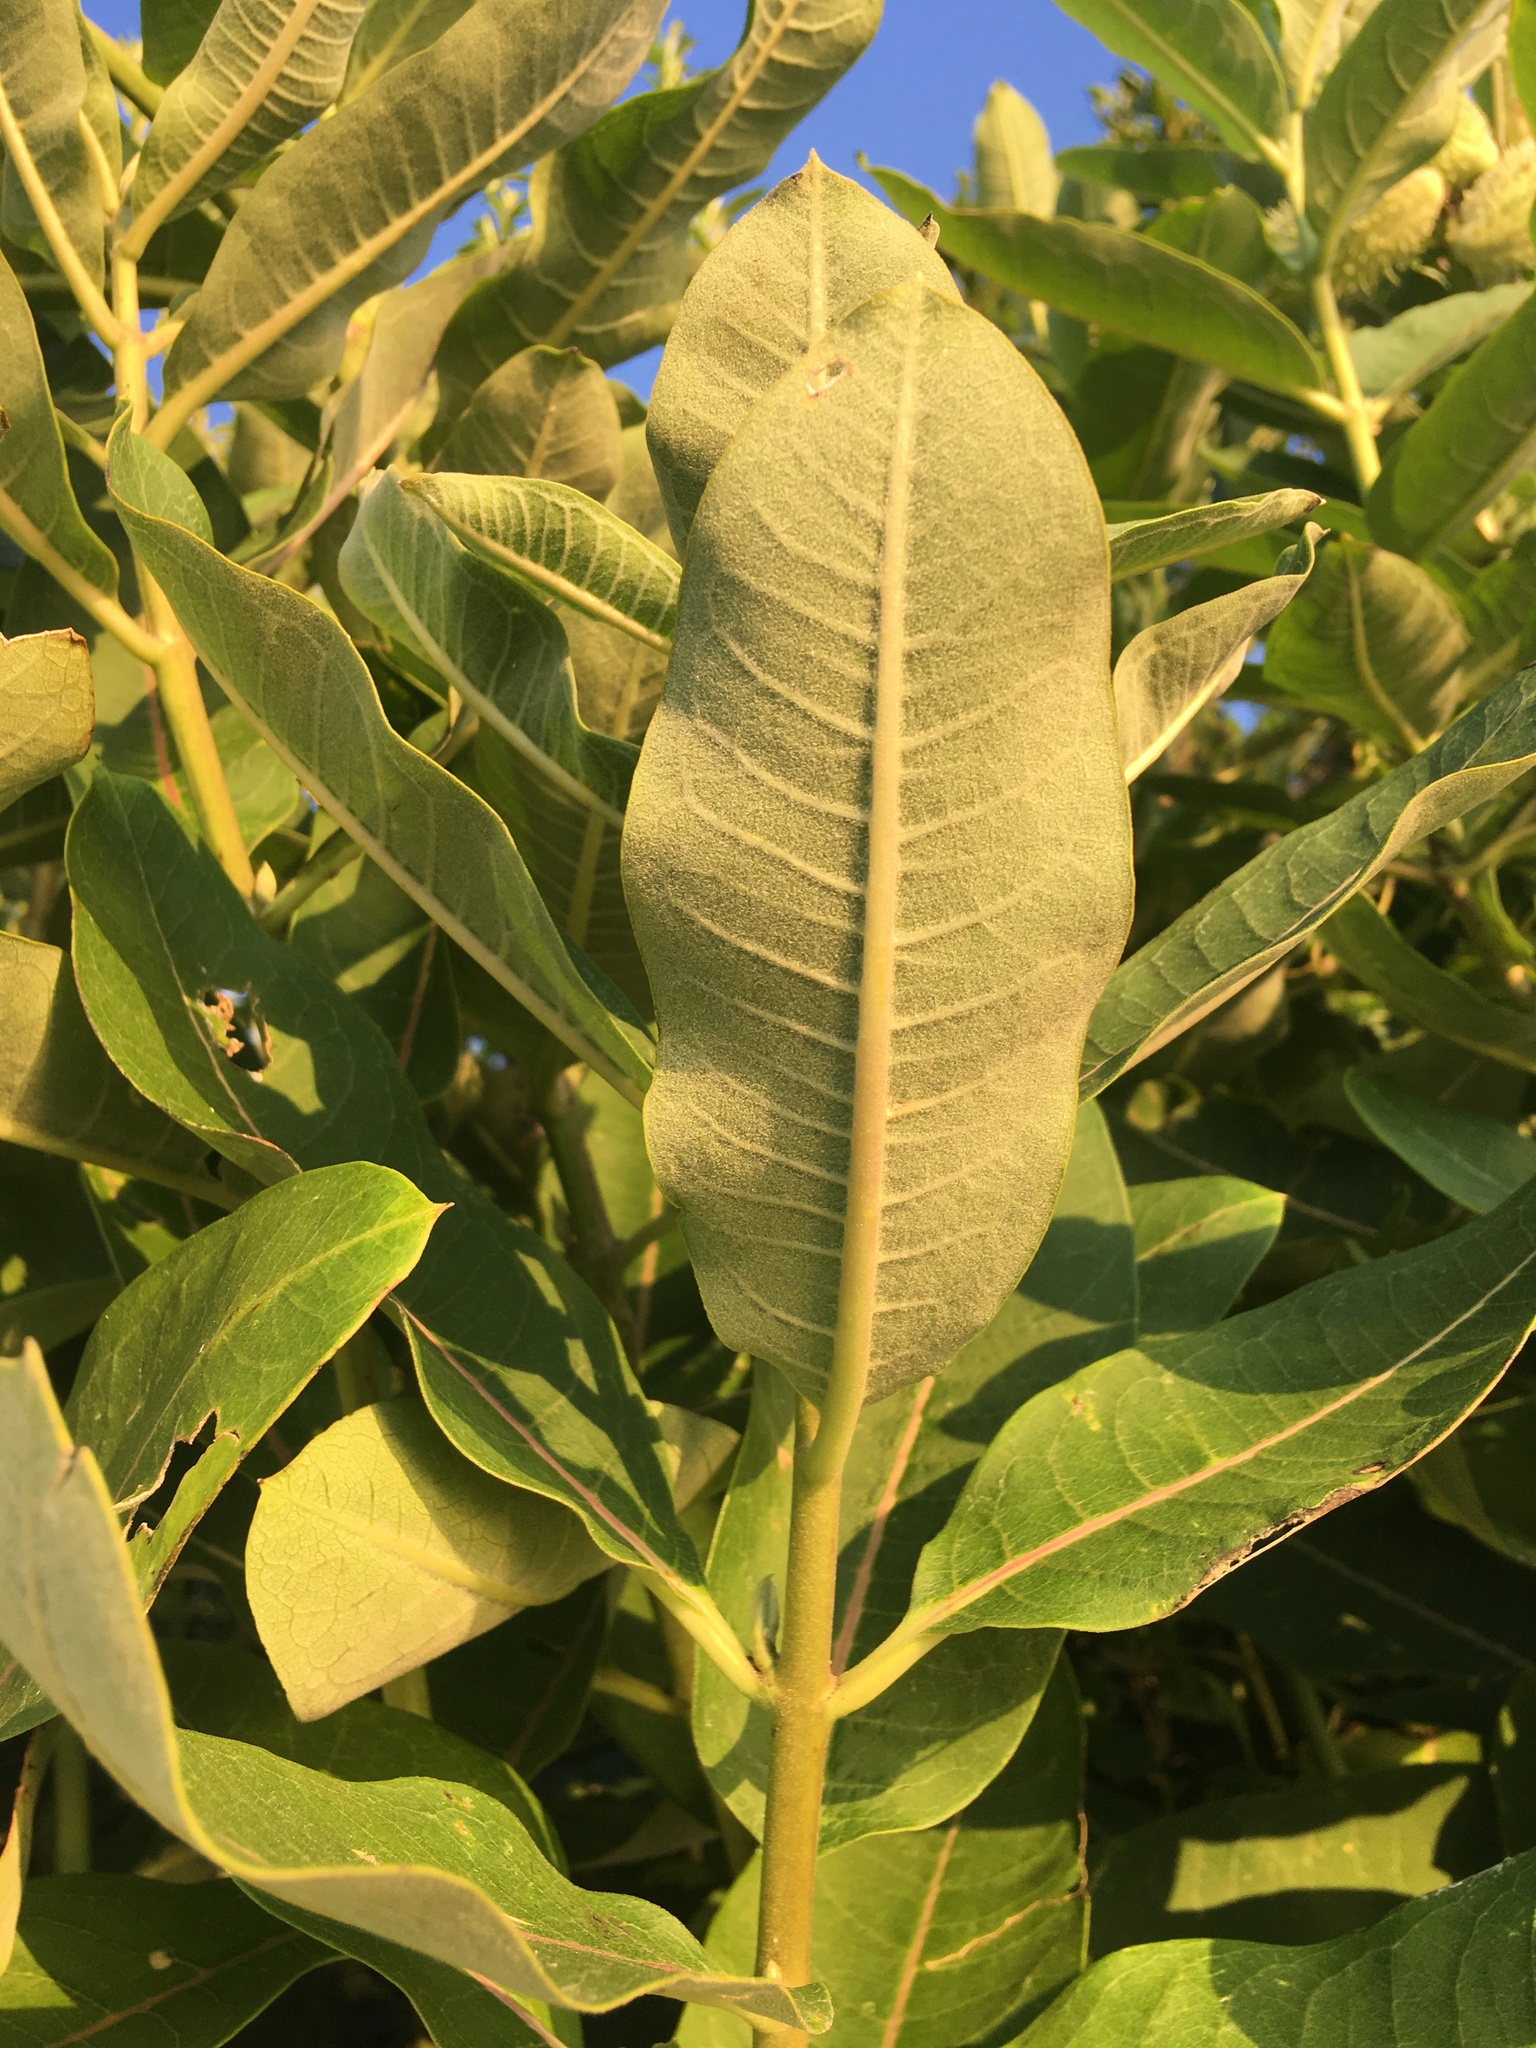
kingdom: Plantae
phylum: Tracheophyta
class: Magnoliopsida
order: Gentianales
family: Apocynaceae
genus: Asclepias
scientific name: Asclepias syriaca
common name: Common milkweed
